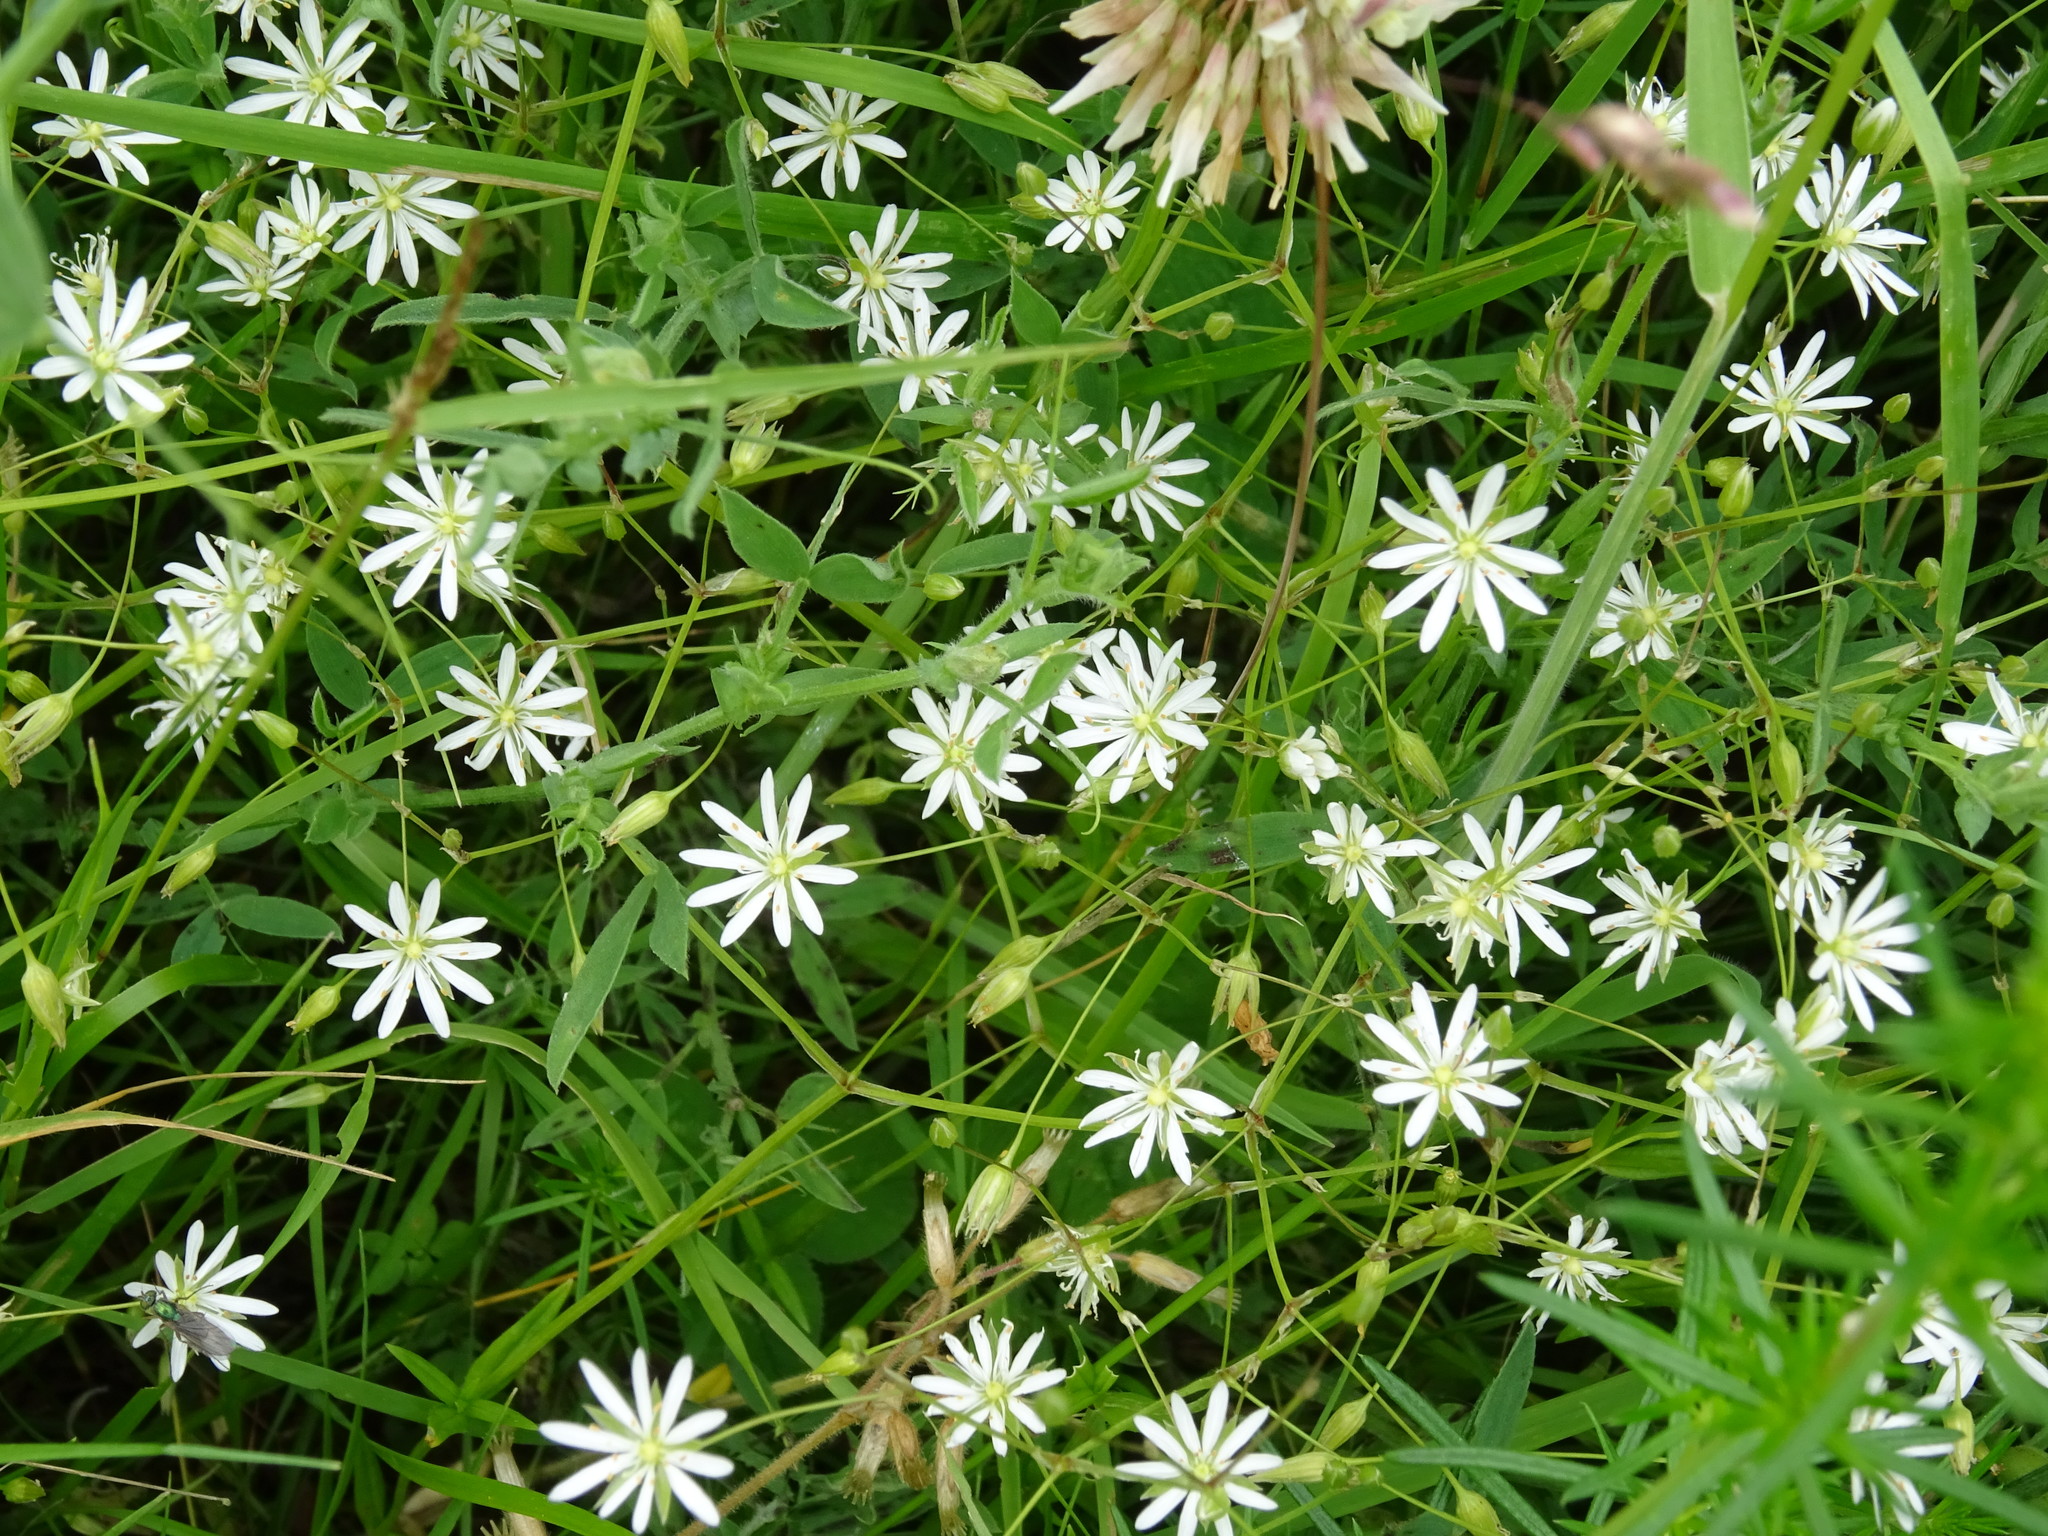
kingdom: Plantae
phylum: Tracheophyta
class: Magnoliopsida
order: Caryophyllales
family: Caryophyllaceae
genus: Stellaria
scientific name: Stellaria nemorum
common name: Wood stitchwort
